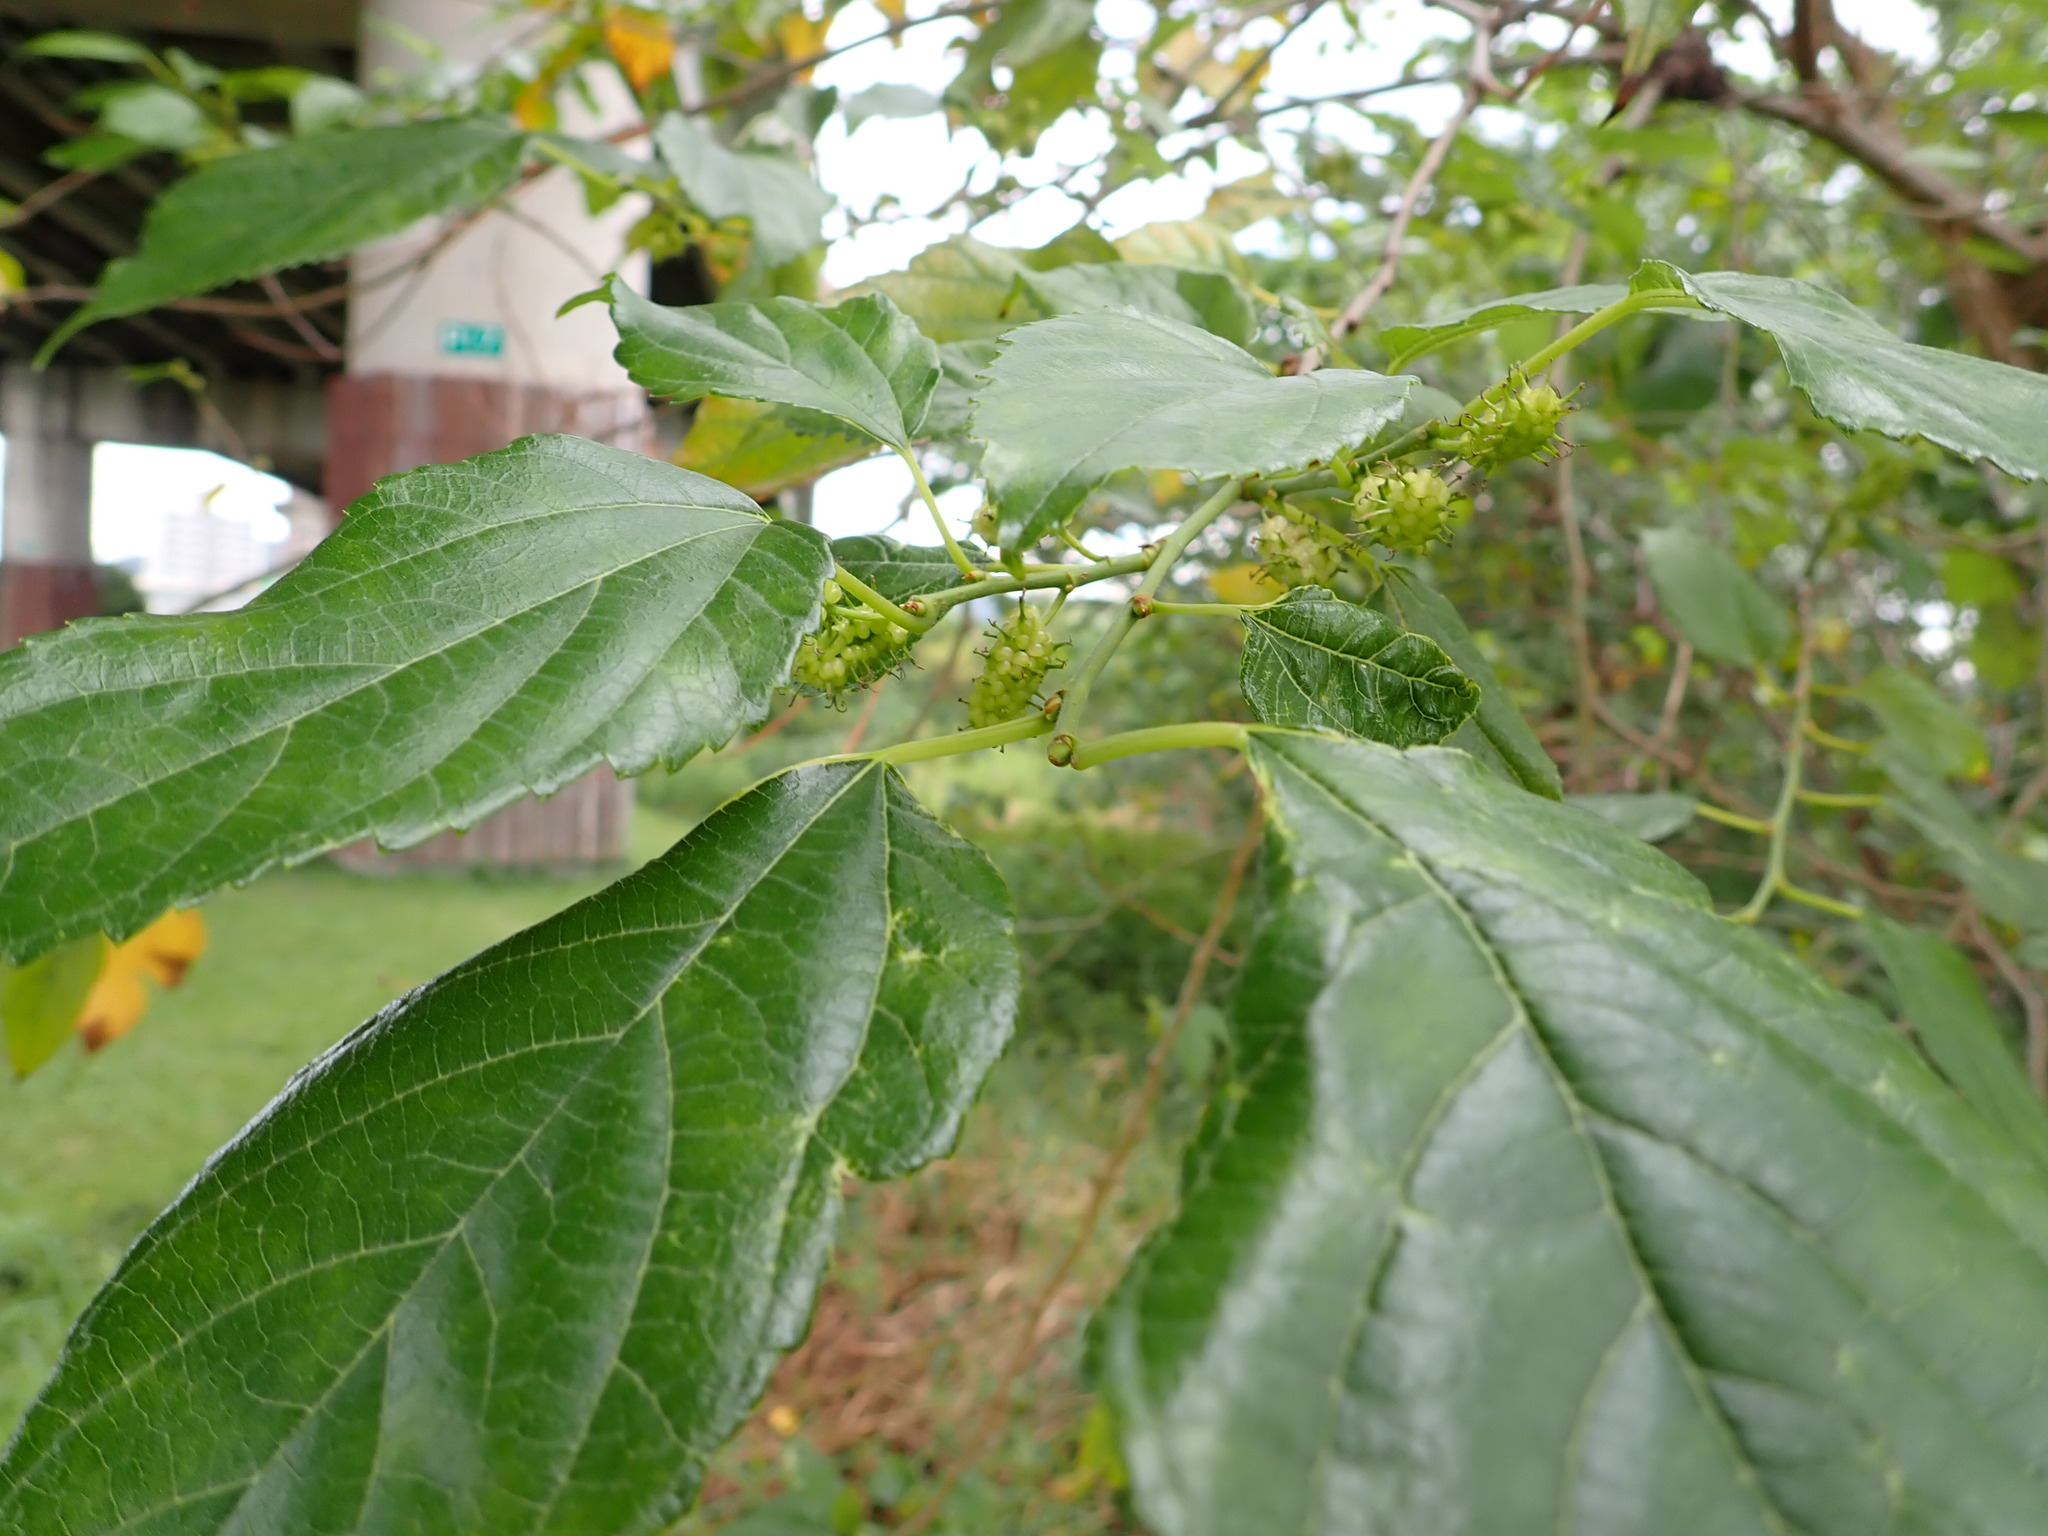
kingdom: Plantae
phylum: Tracheophyta
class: Magnoliopsida
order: Rosales
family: Moraceae
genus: Morus
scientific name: Morus indica
